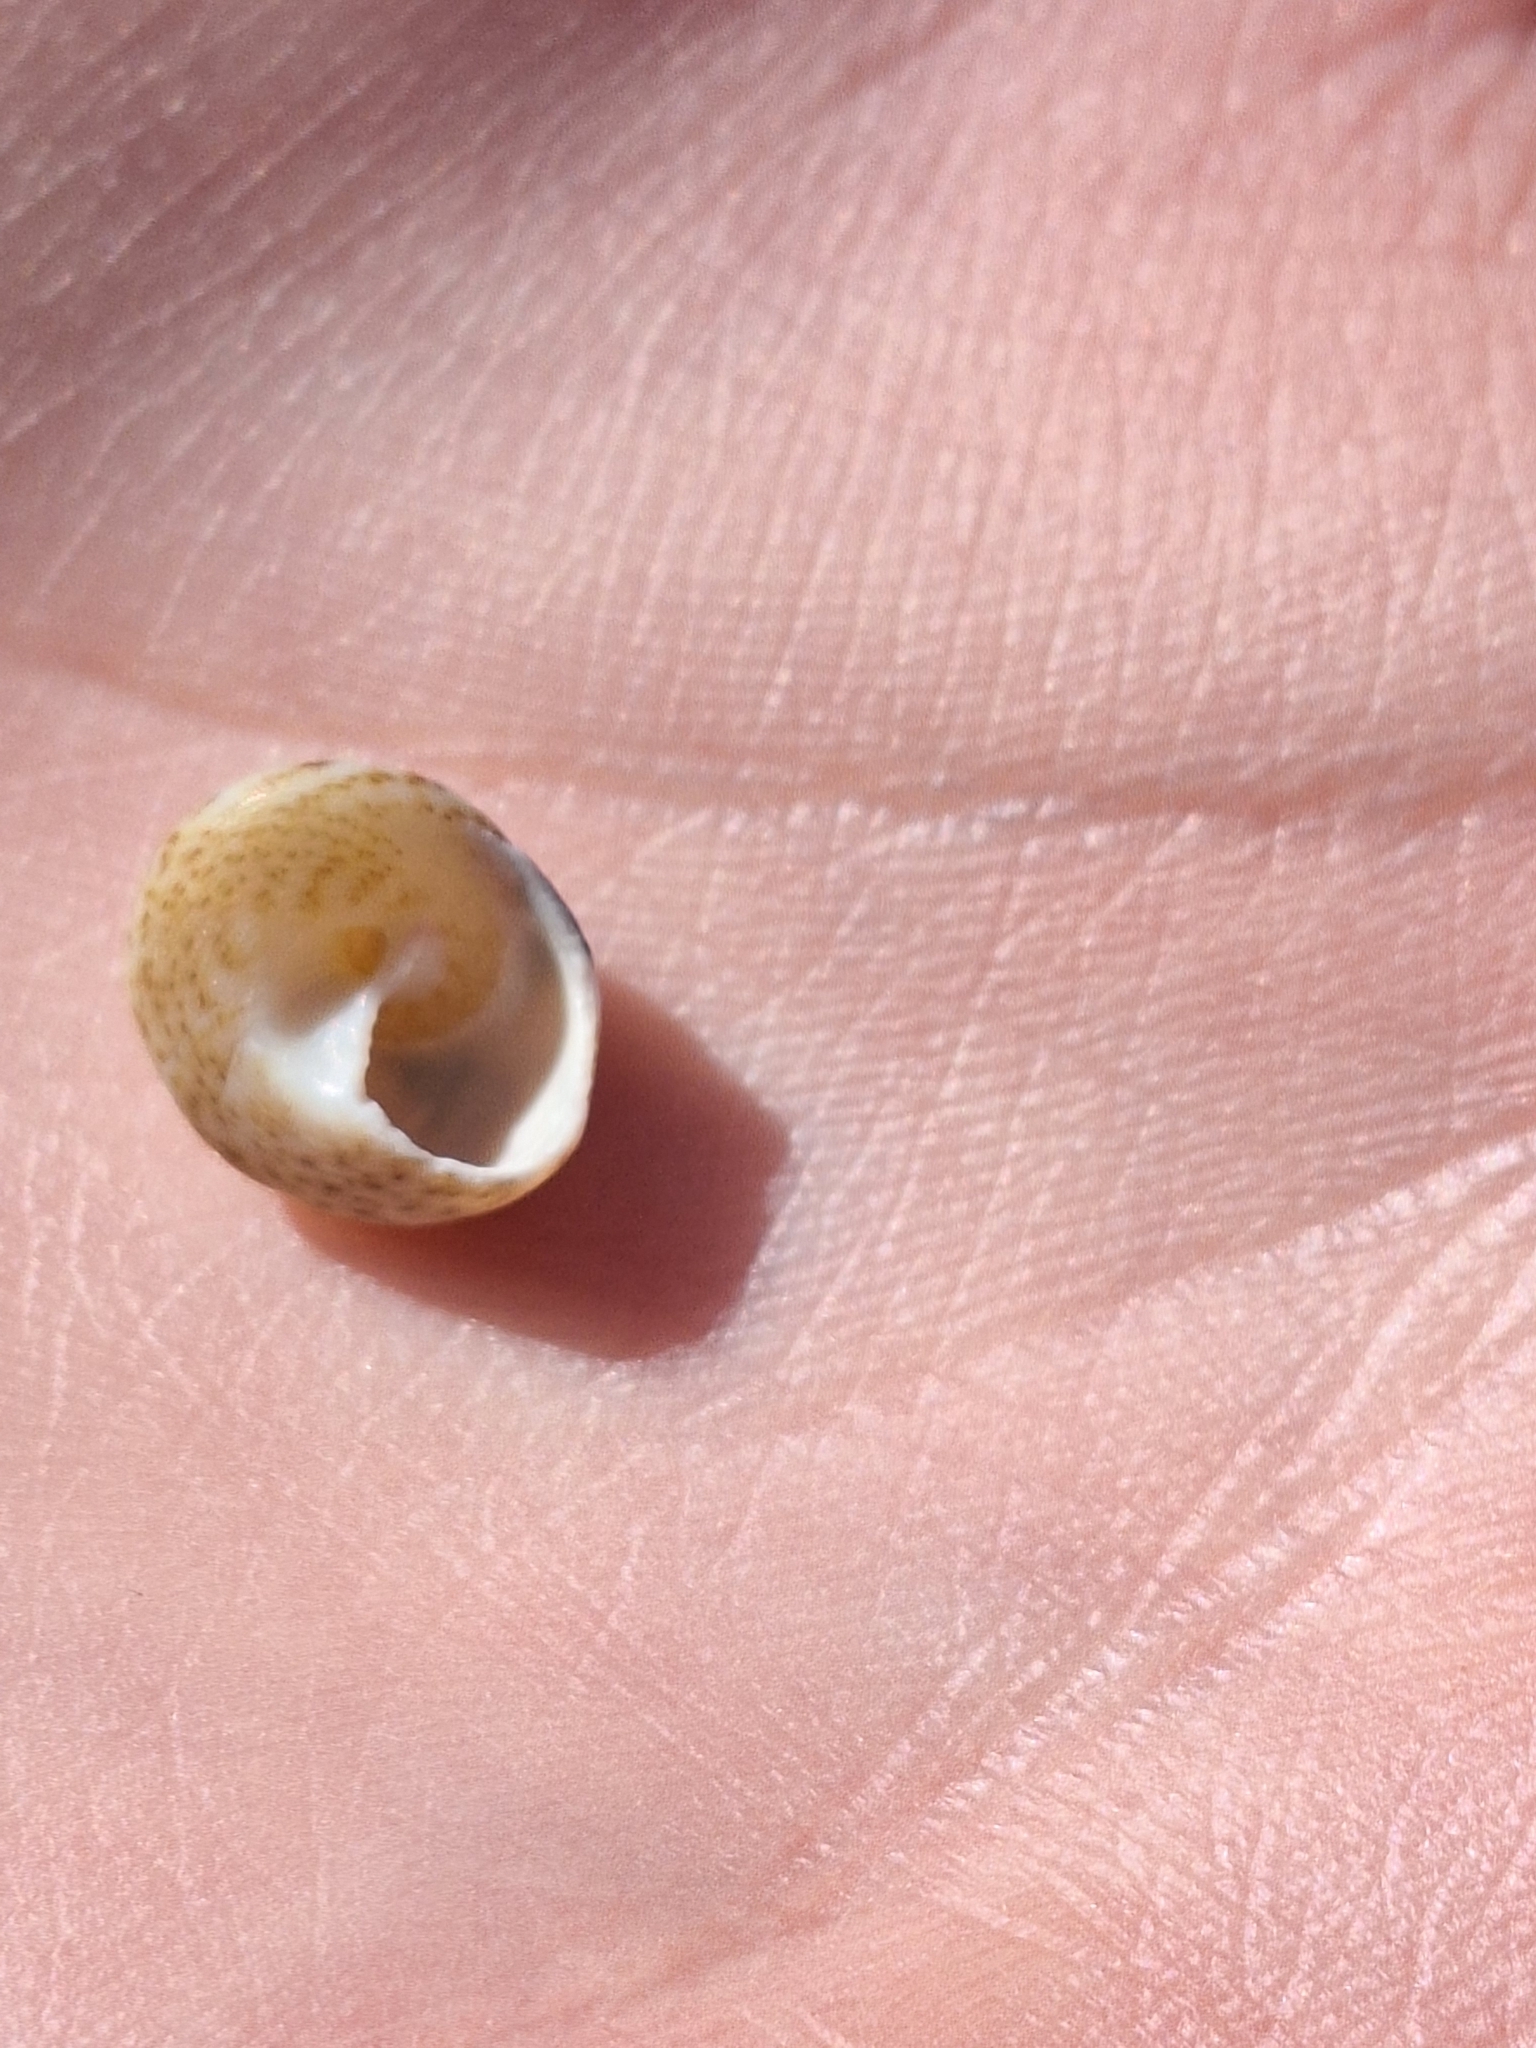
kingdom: Animalia
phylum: Mollusca
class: Gastropoda
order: Trochida
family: Trochidae
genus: Steromphala
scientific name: Steromphala varia
